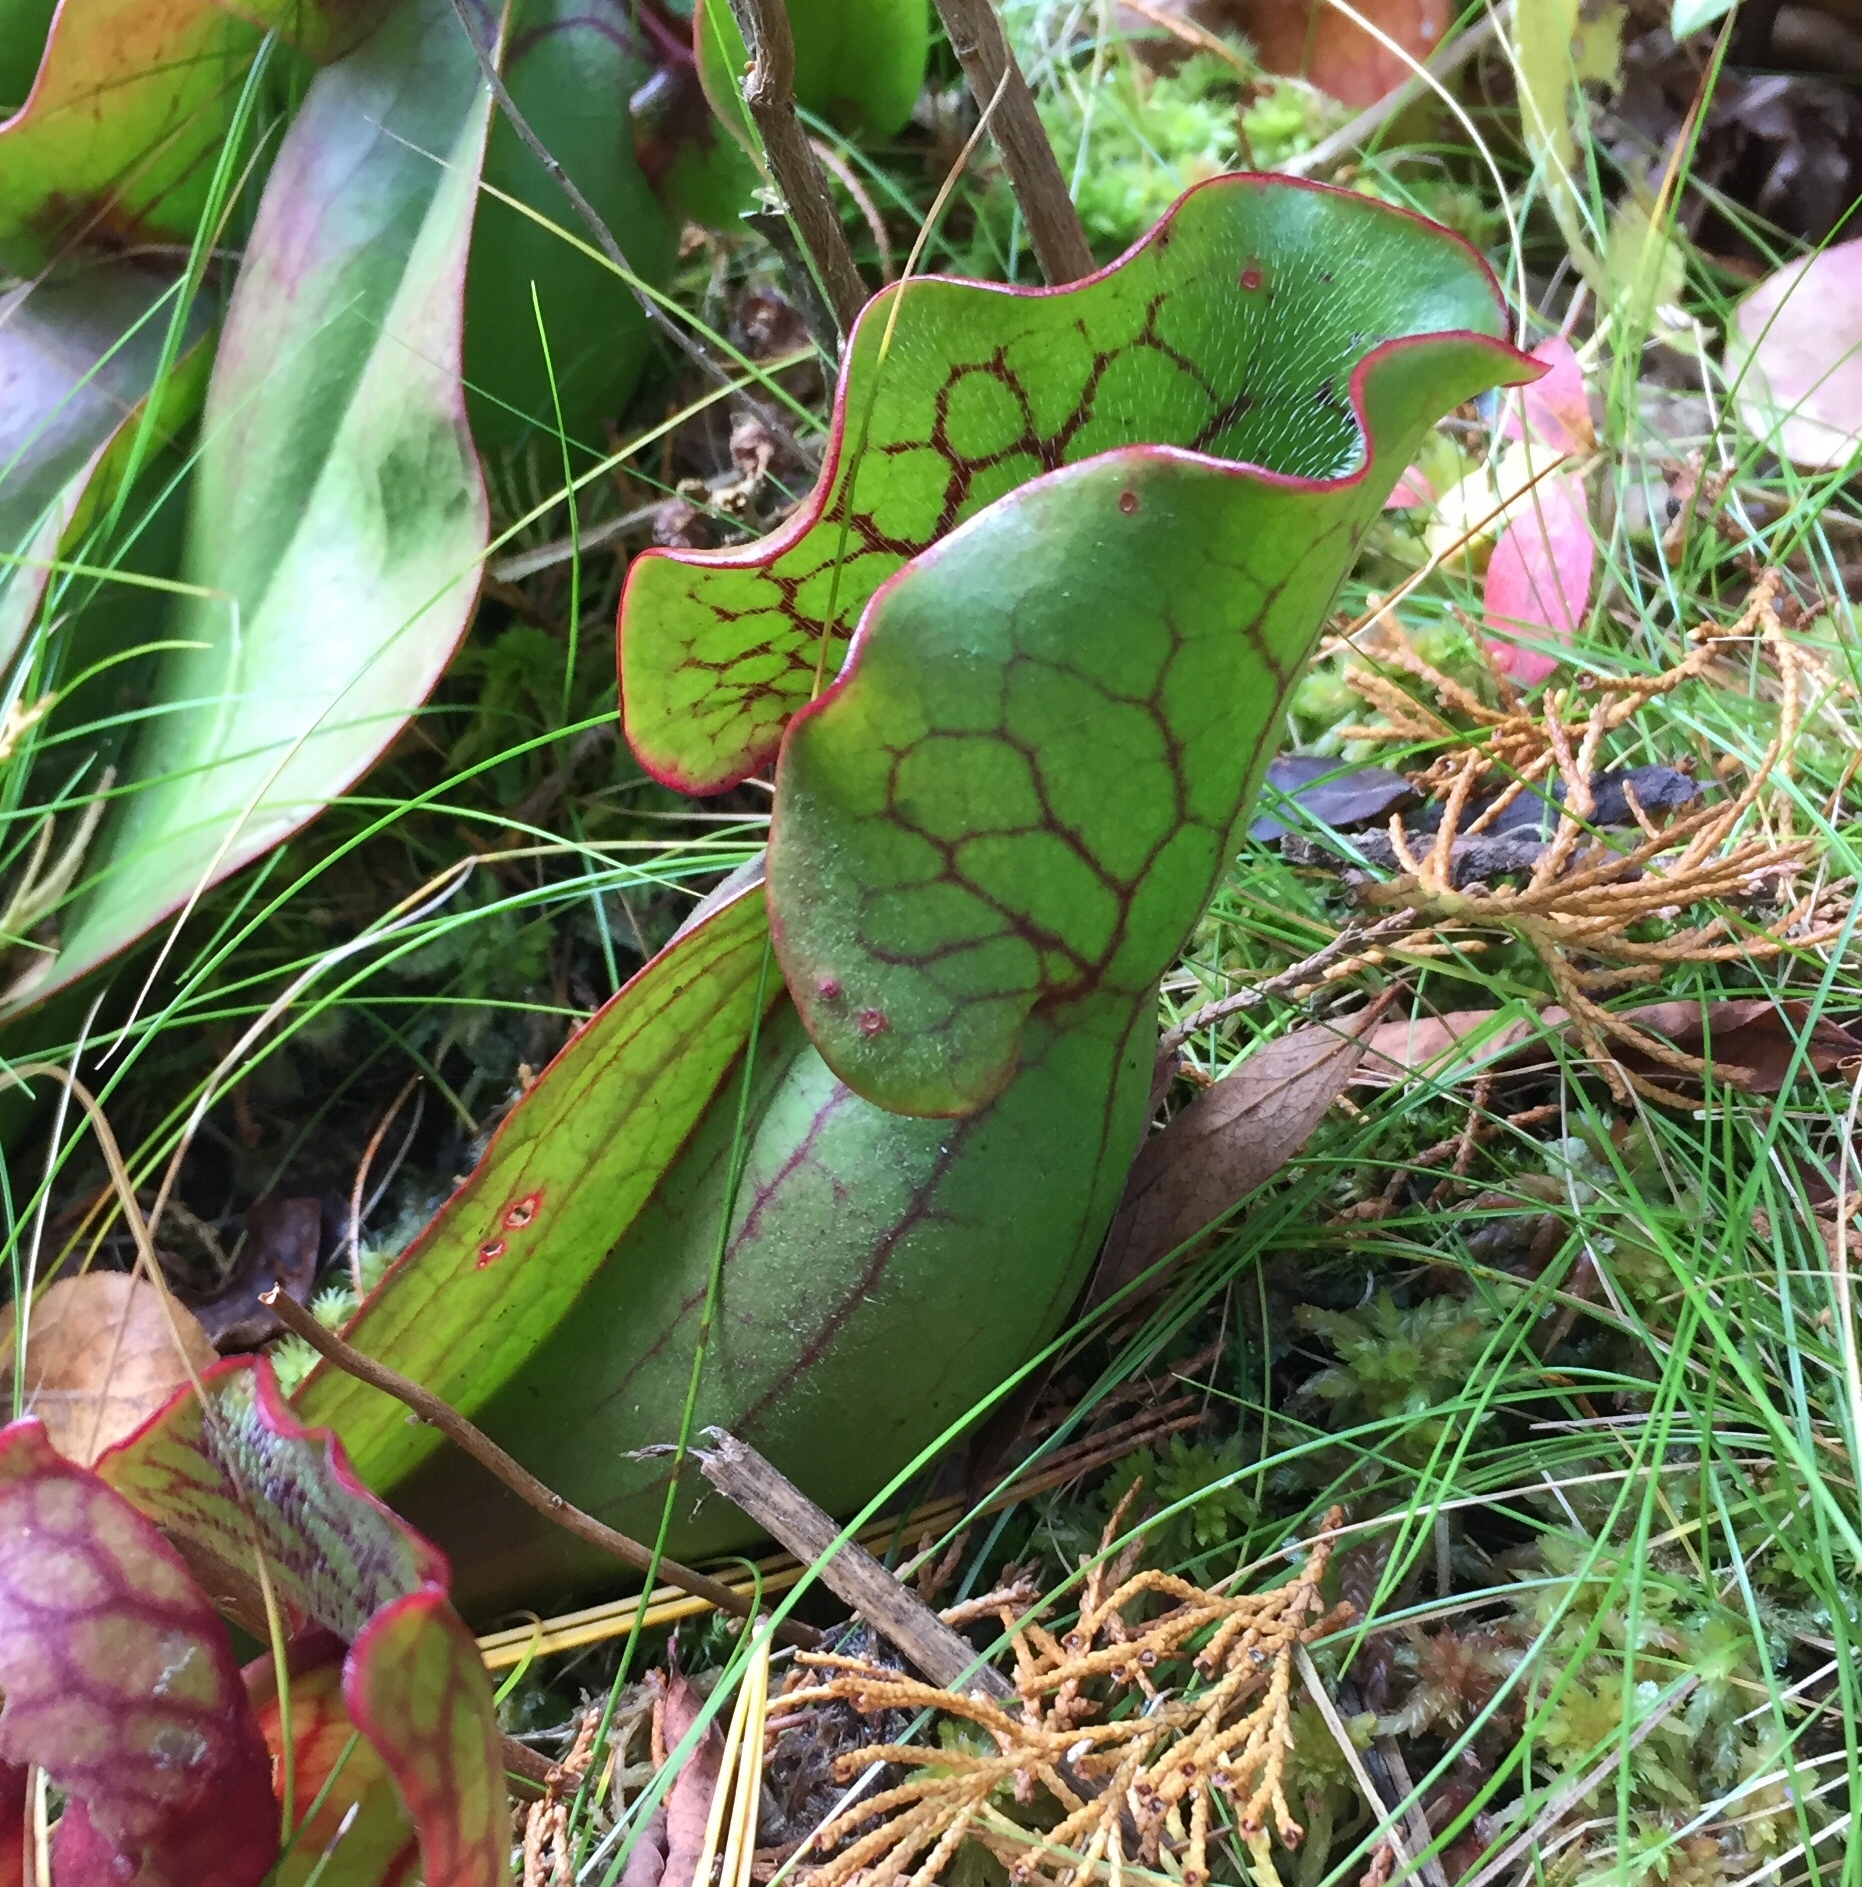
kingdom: Plantae
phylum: Tracheophyta
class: Magnoliopsida
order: Ericales
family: Sarraceniaceae
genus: Sarracenia
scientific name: Sarracenia purpurea
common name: Pitcherplant
